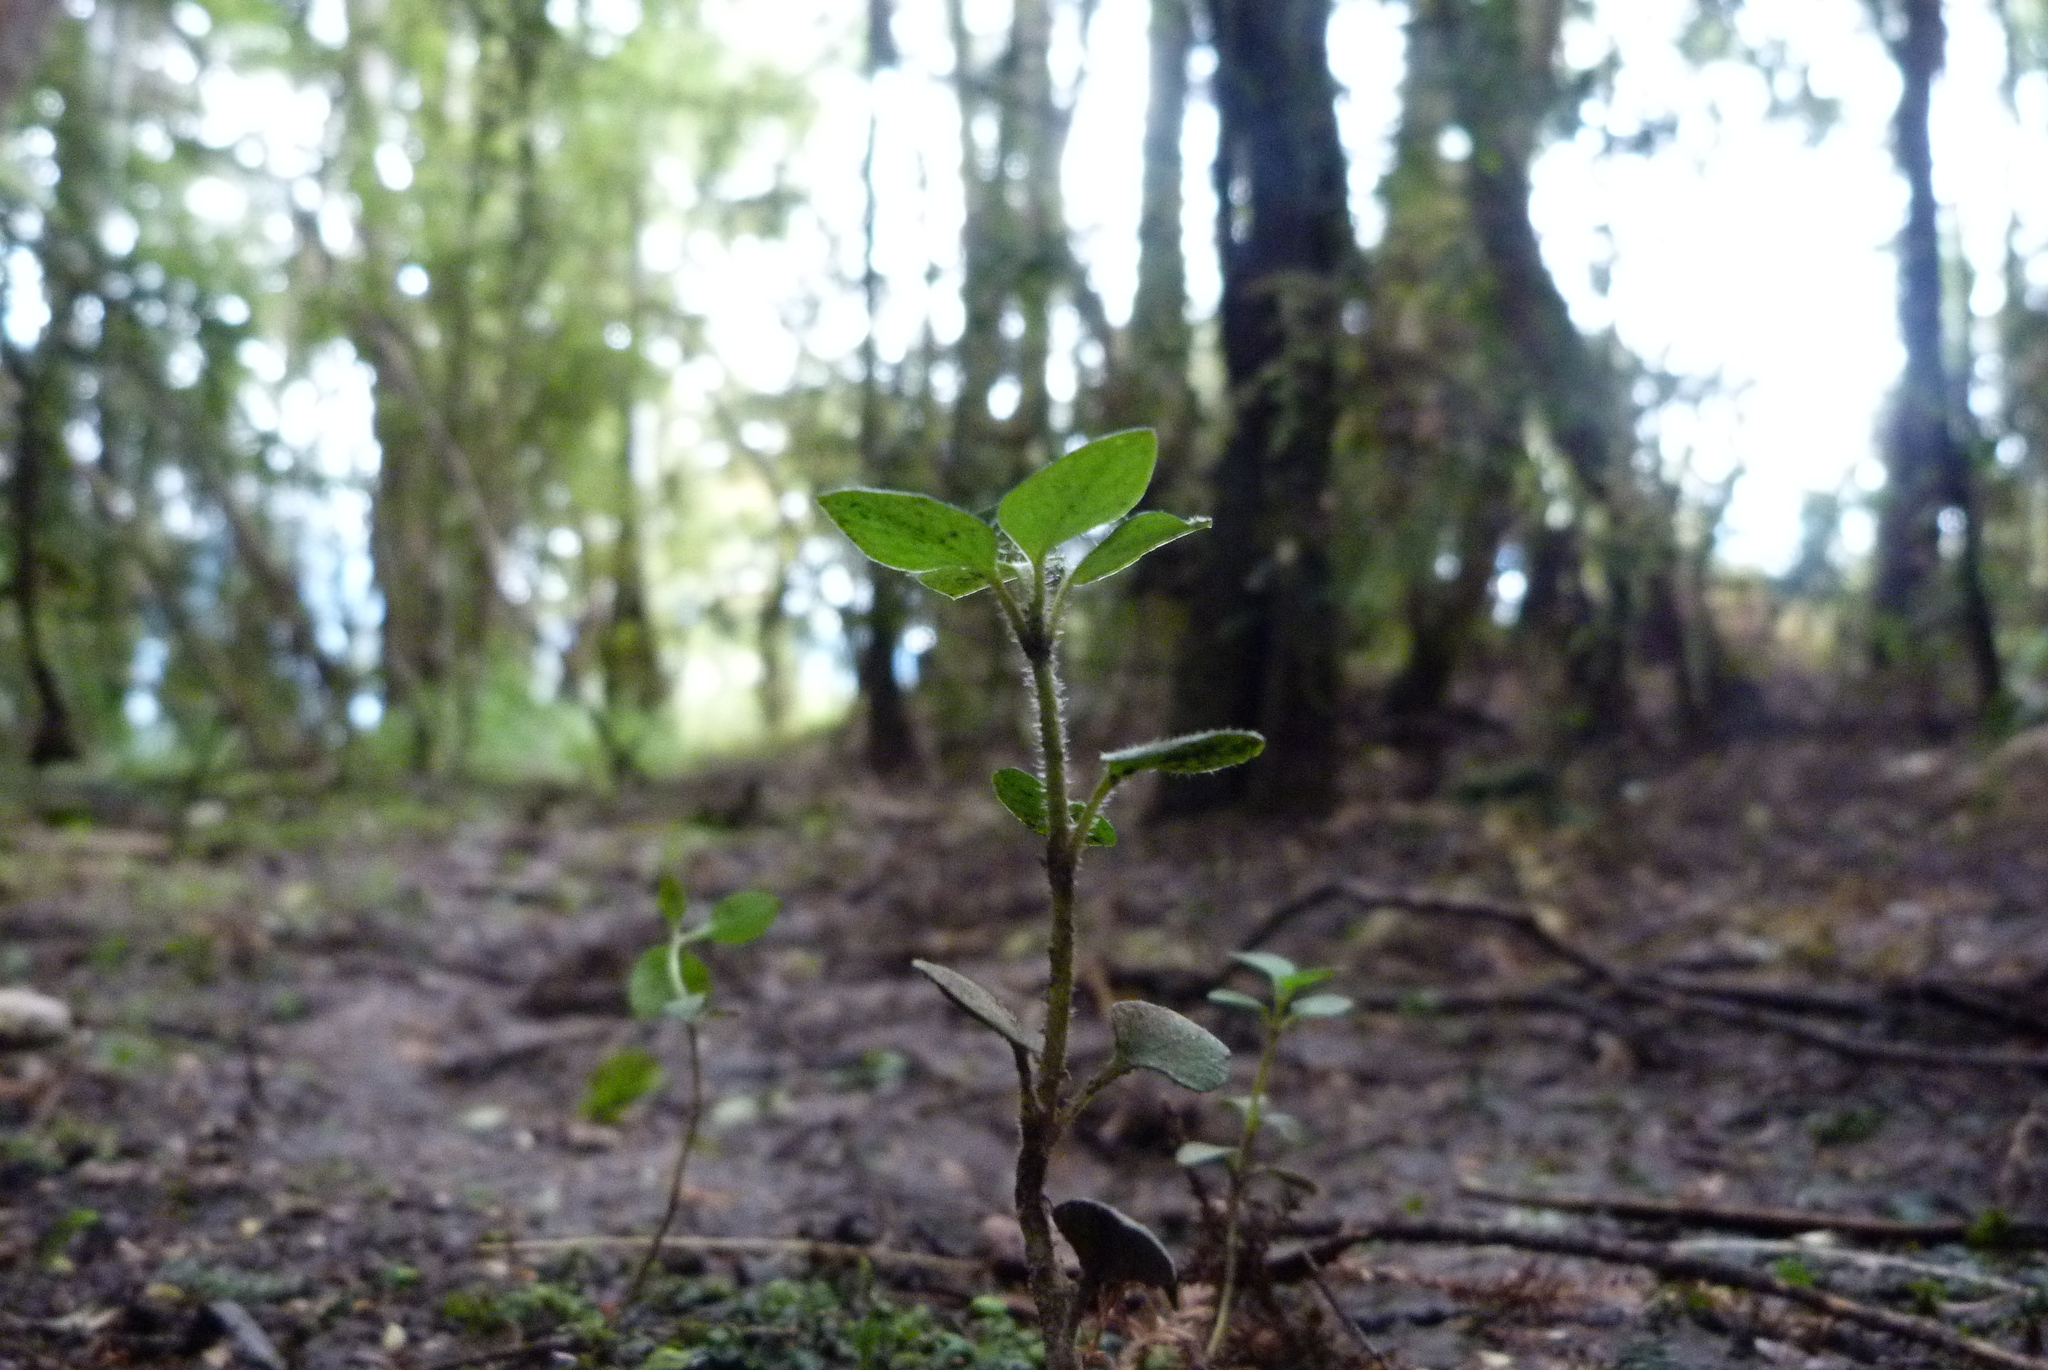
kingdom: Plantae
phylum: Tracheophyta
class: Magnoliopsida
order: Gentianales
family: Rubiaceae
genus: Nertera
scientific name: Nertera villosa
